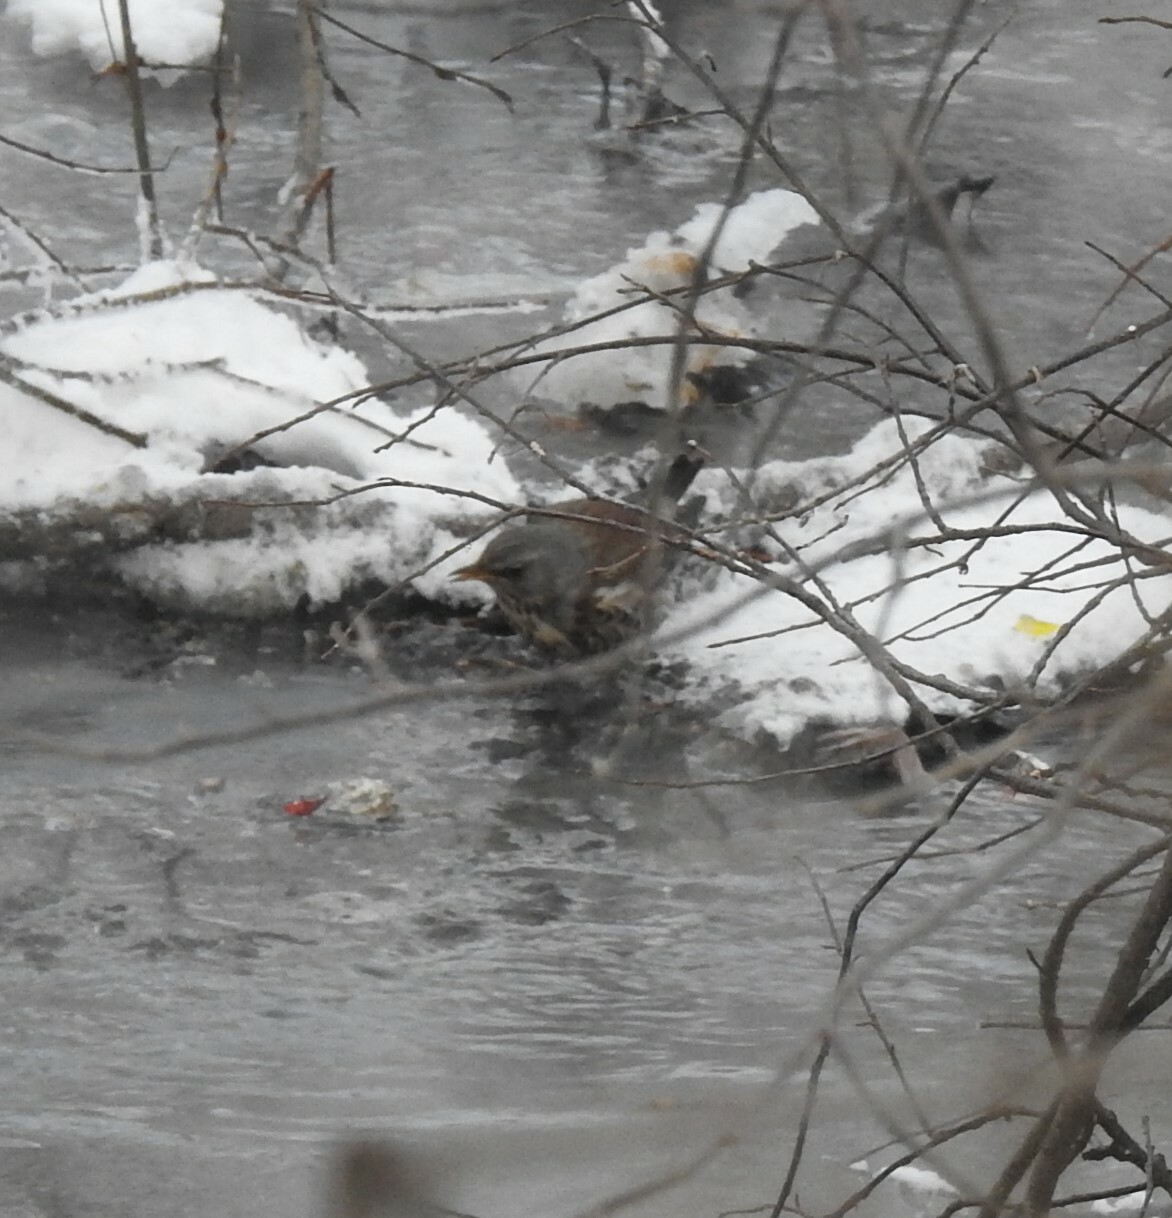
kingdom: Animalia
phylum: Chordata
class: Aves
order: Passeriformes
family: Turdidae
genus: Turdus
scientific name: Turdus pilaris
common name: Fieldfare
